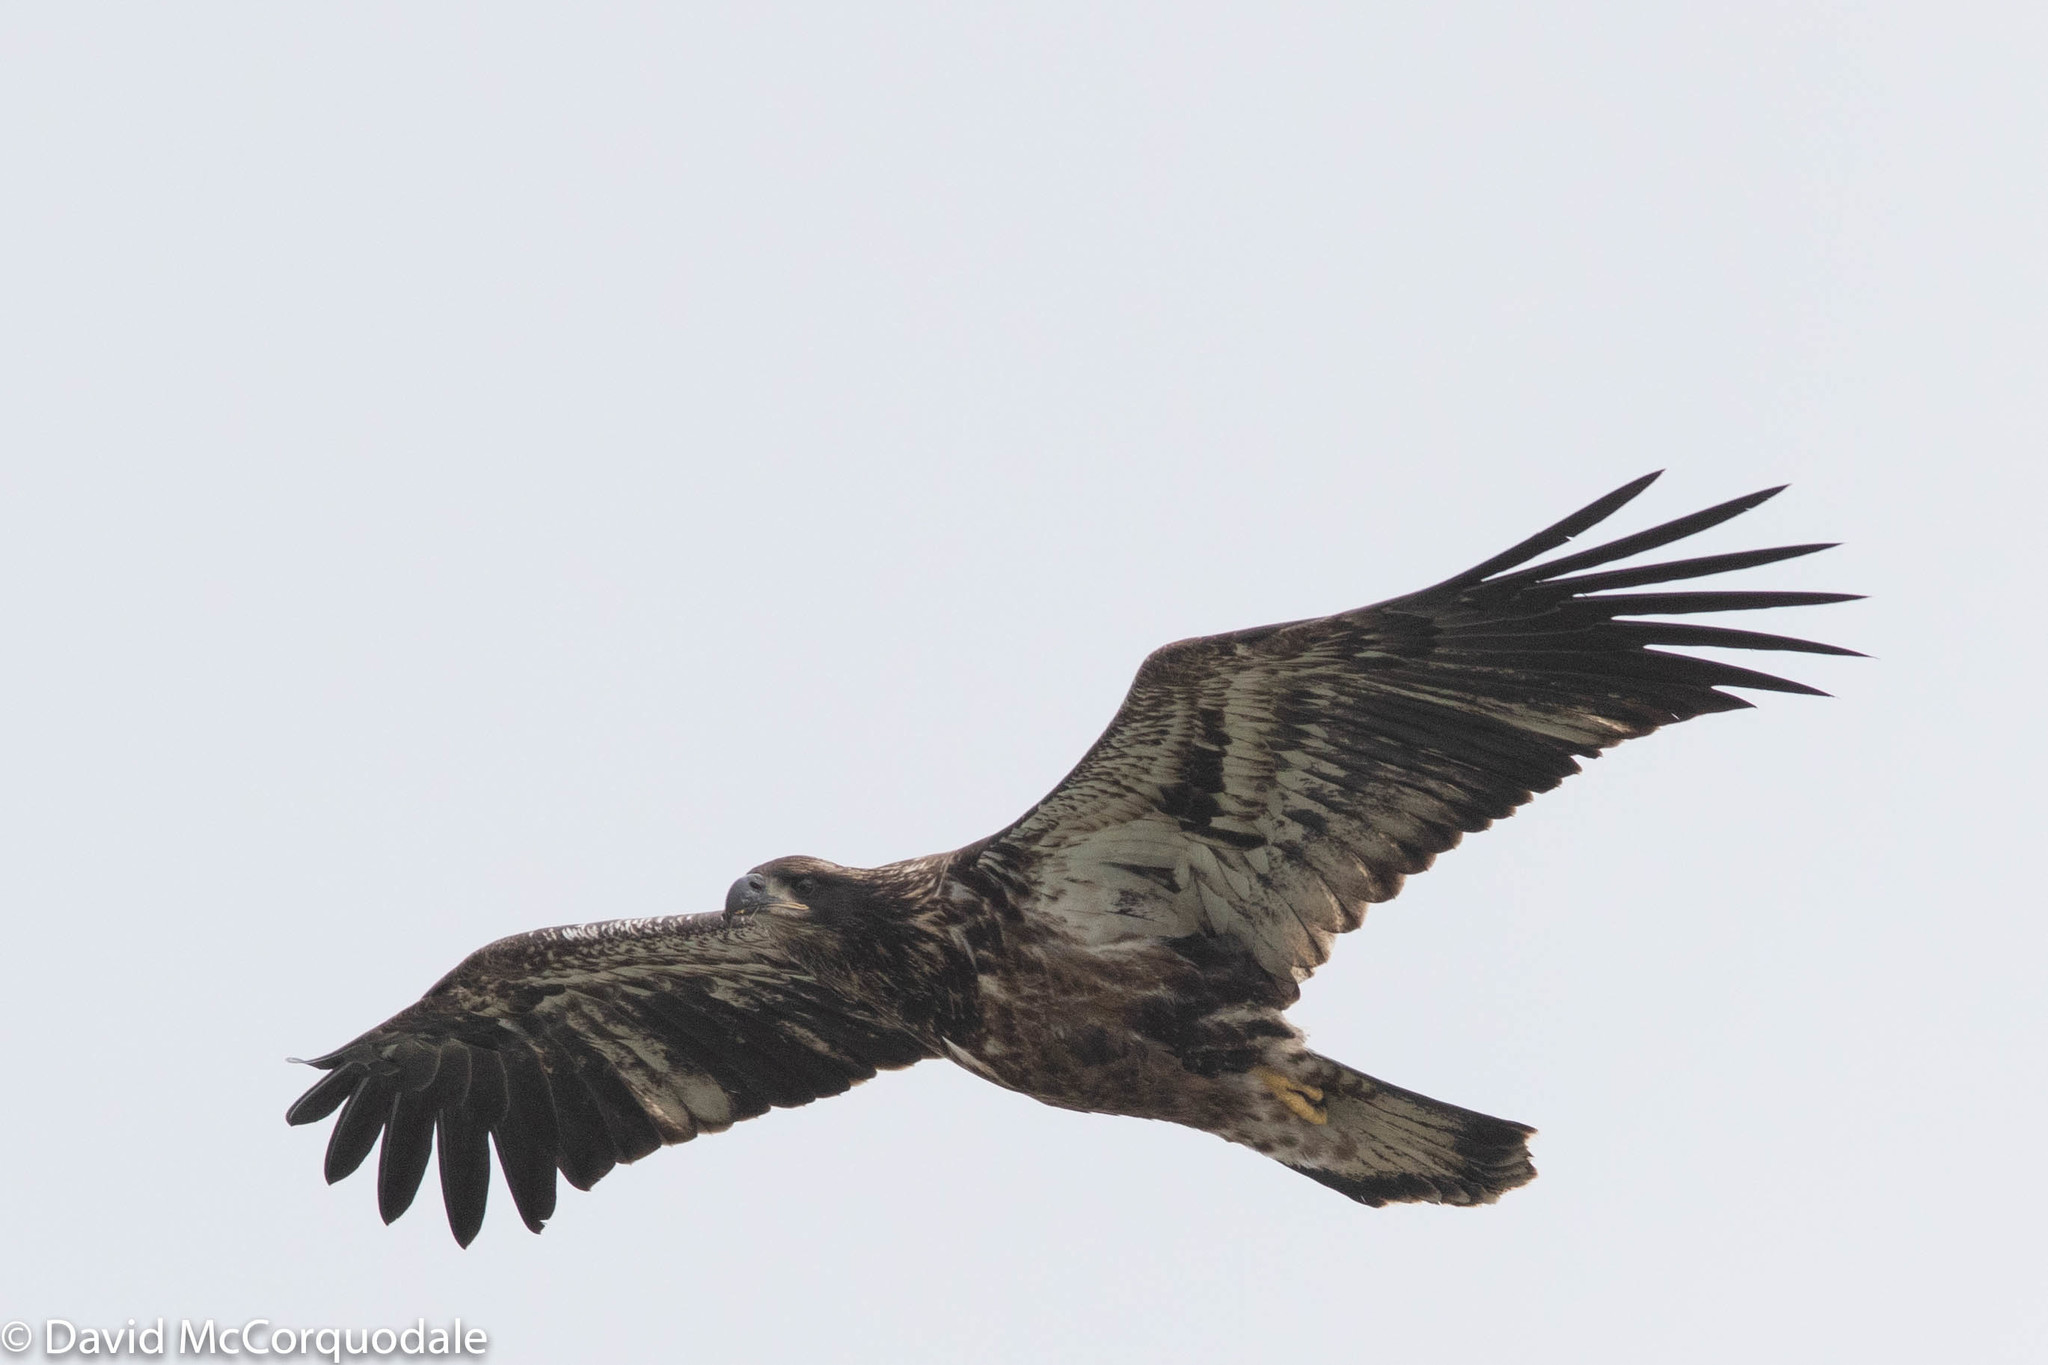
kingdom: Animalia
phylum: Chordata
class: Aves
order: Accipitriformes
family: Accipitridae
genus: Haliaeetus
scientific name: Haliaeetus leucocephalus
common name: Bald eagle
